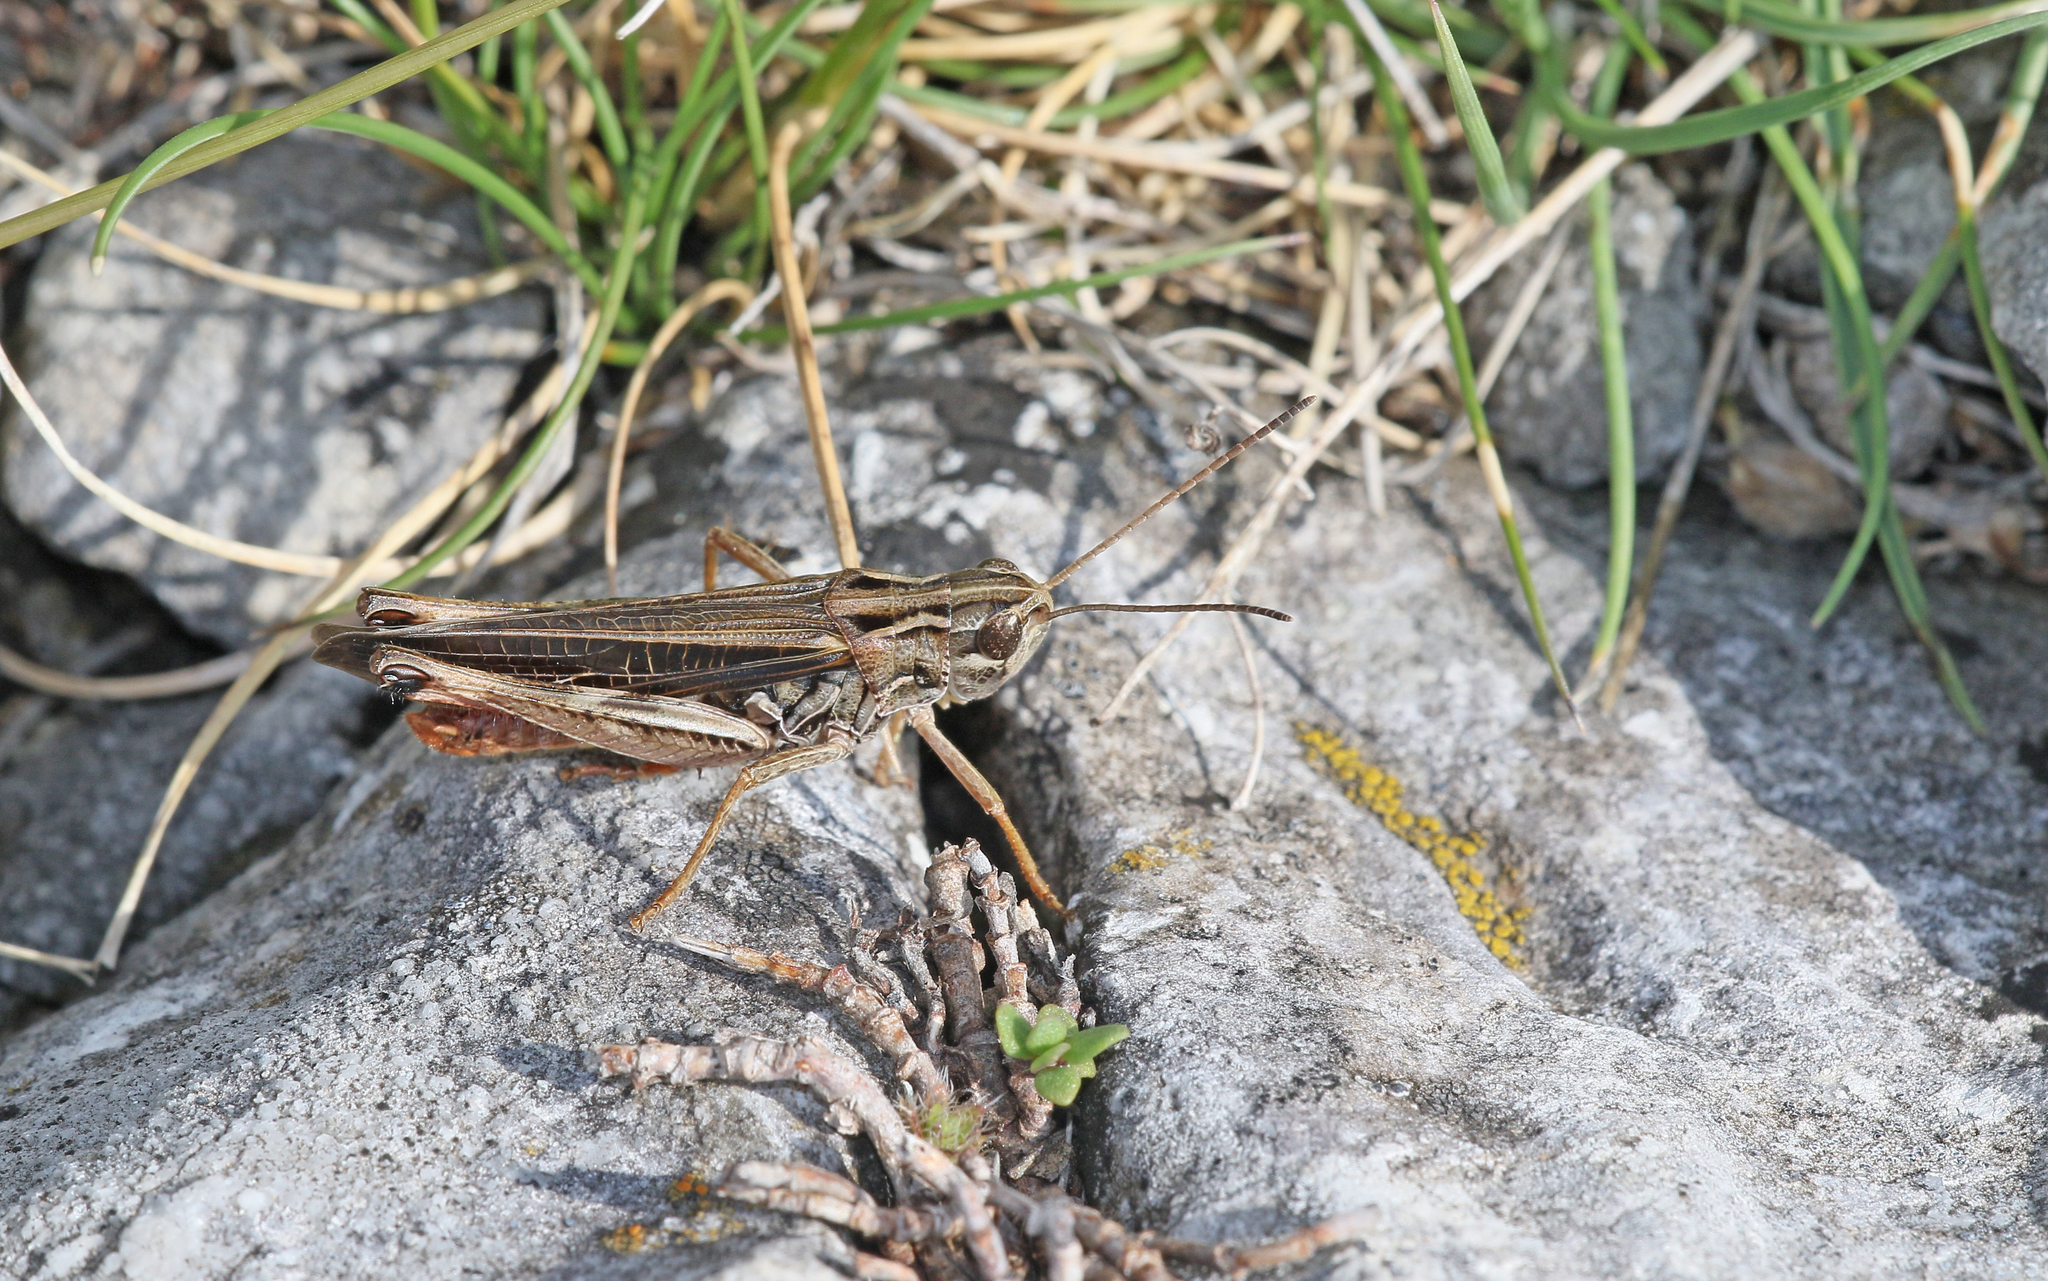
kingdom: Animalia
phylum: Arthropoda
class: Insecta
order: Orthoptera
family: Acrididae
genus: Stenobothrus
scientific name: Stenobothrus rubicundulus
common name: Wing-buzzing grasshopper
